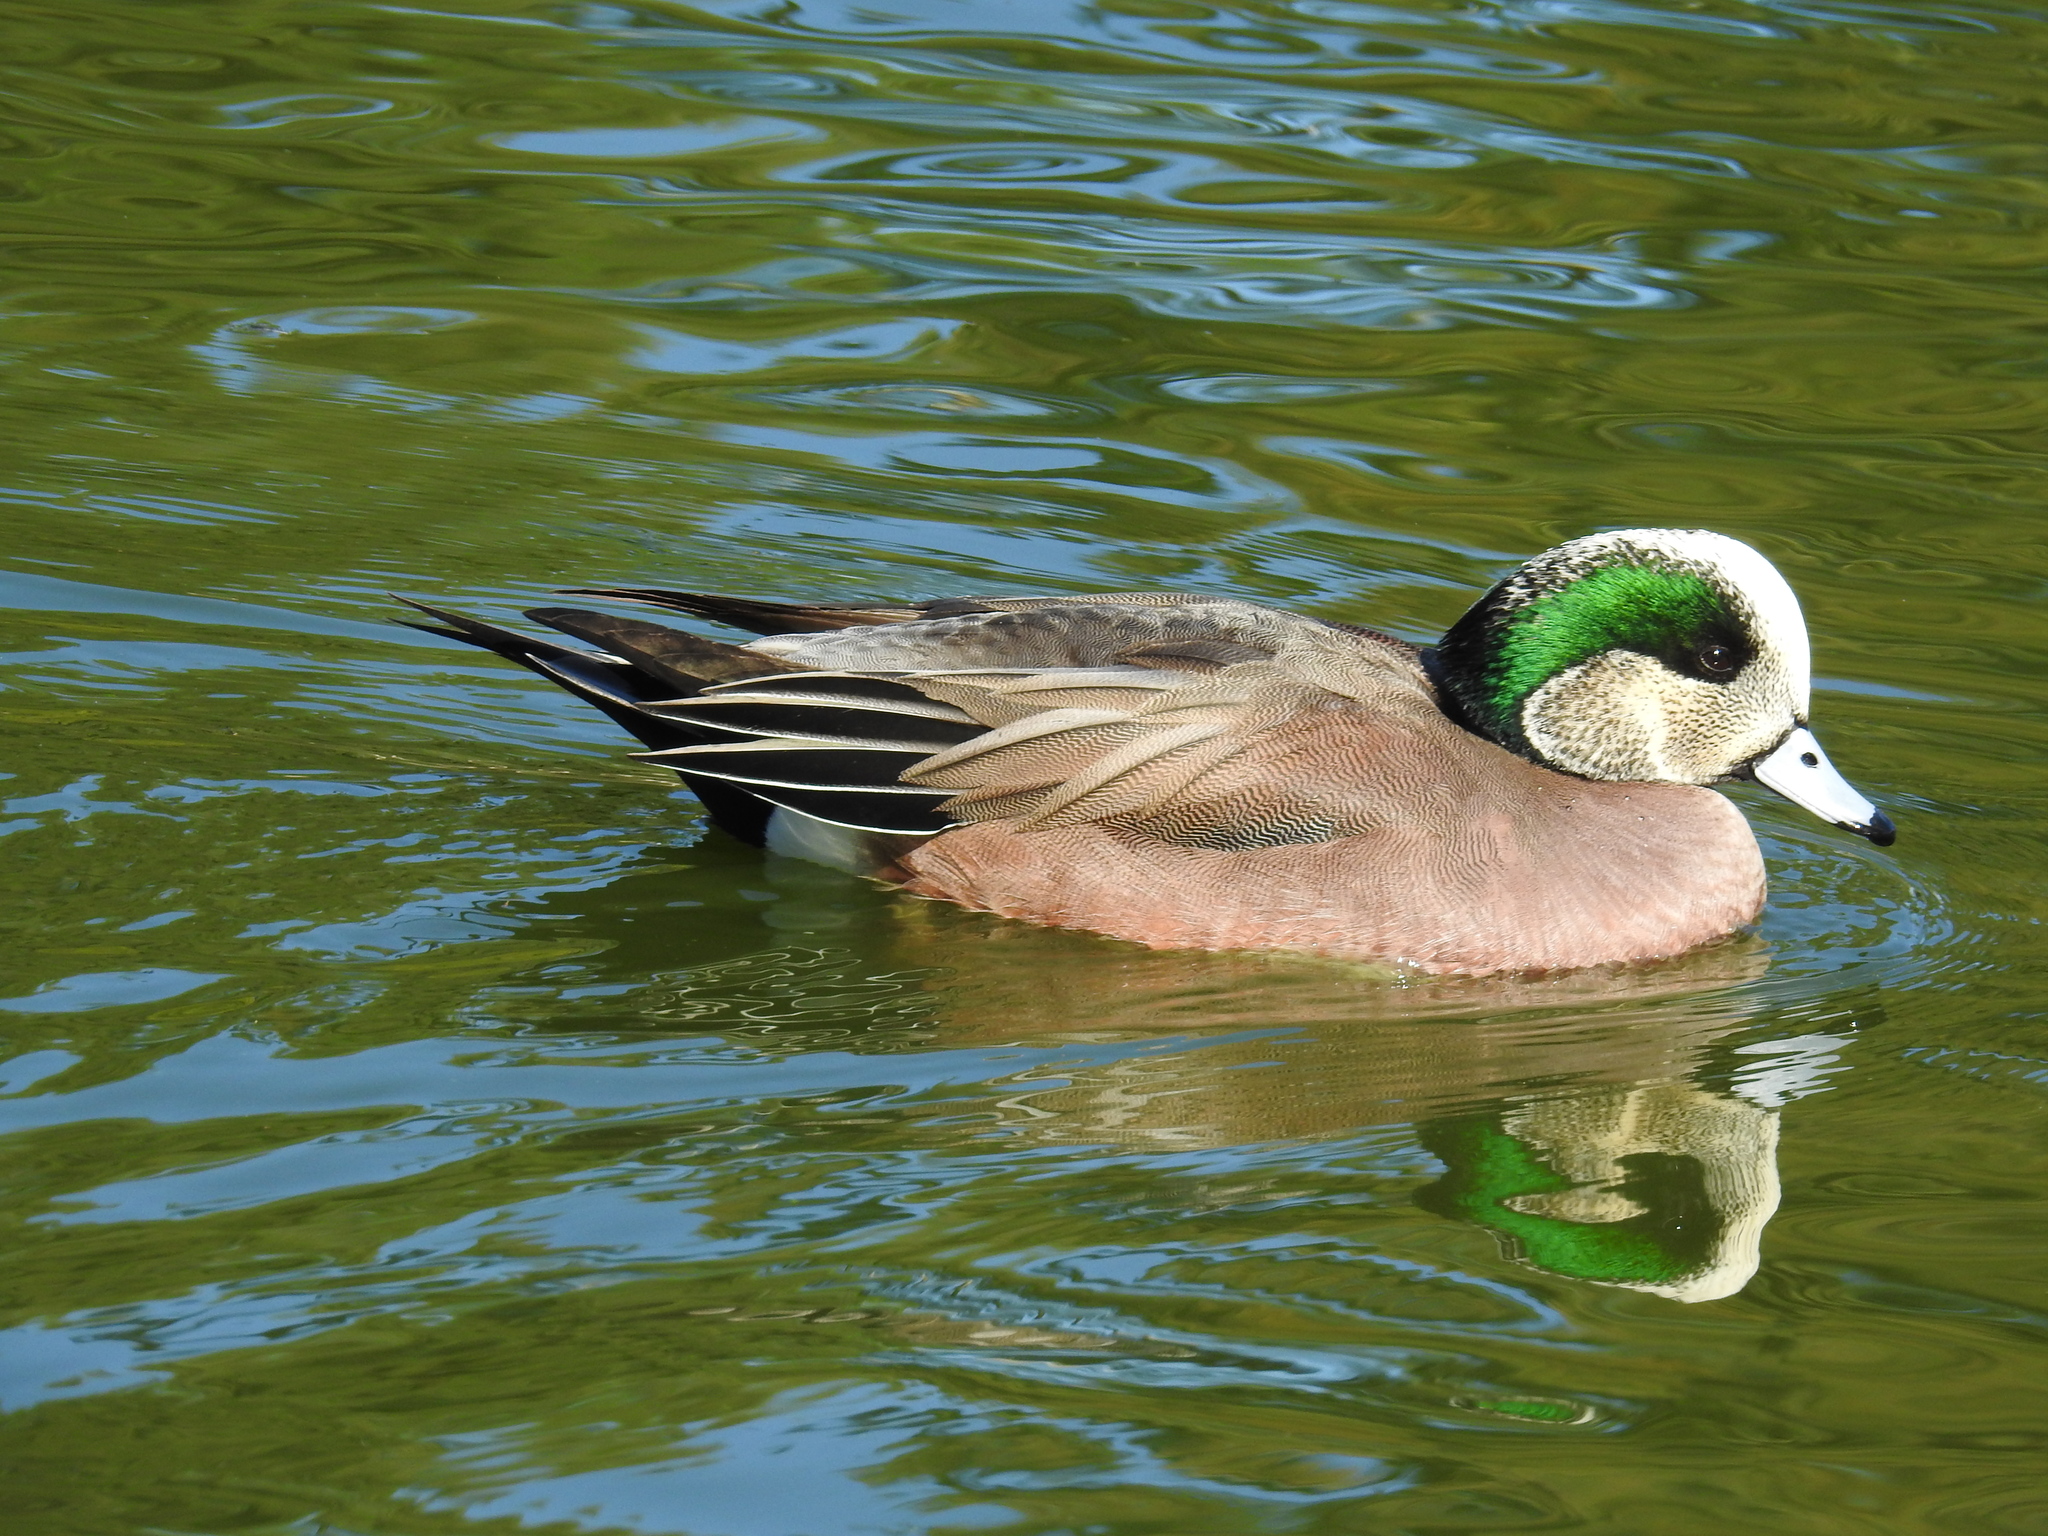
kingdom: Animalia
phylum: Chordata
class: Aves
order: Anseriformes
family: Anatidae
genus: Mareca
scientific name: Mareca americana
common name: American wigeon
